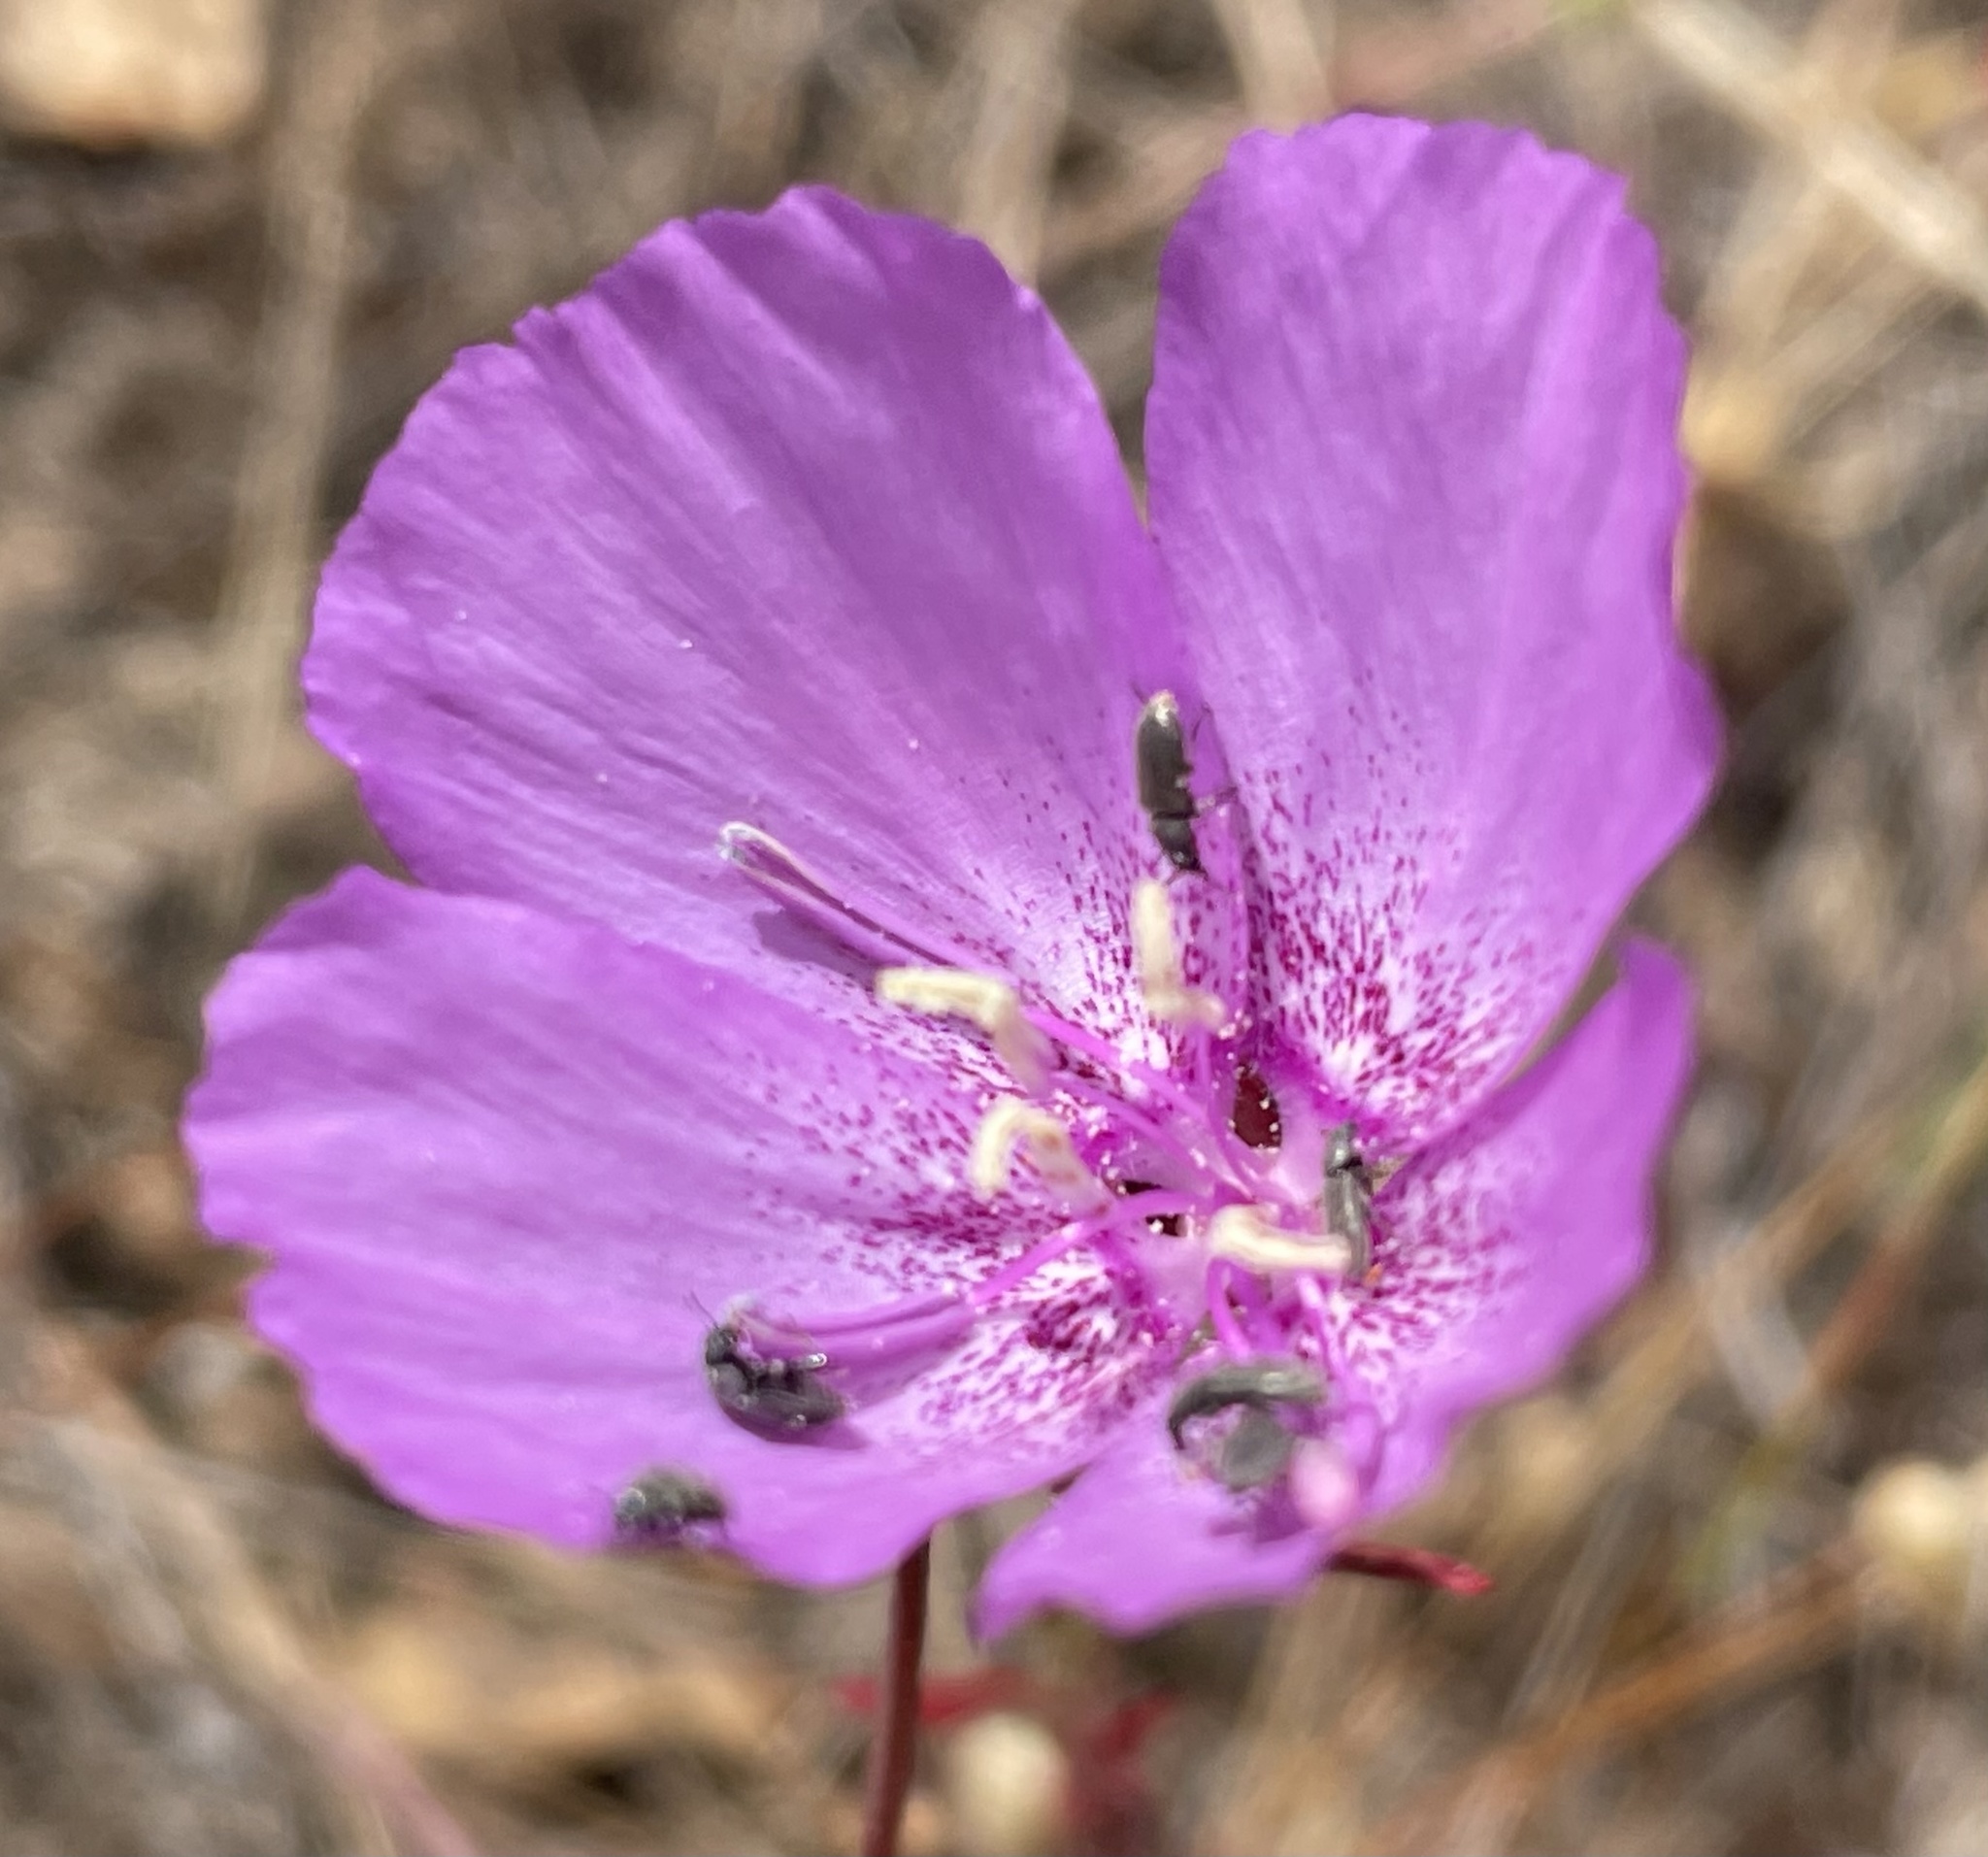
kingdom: Plantae
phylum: Tracheophyta
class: Magnoliopsida
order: Myrtales
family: Onagraceae
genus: Clarkia
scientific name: Clarkia lewisii
